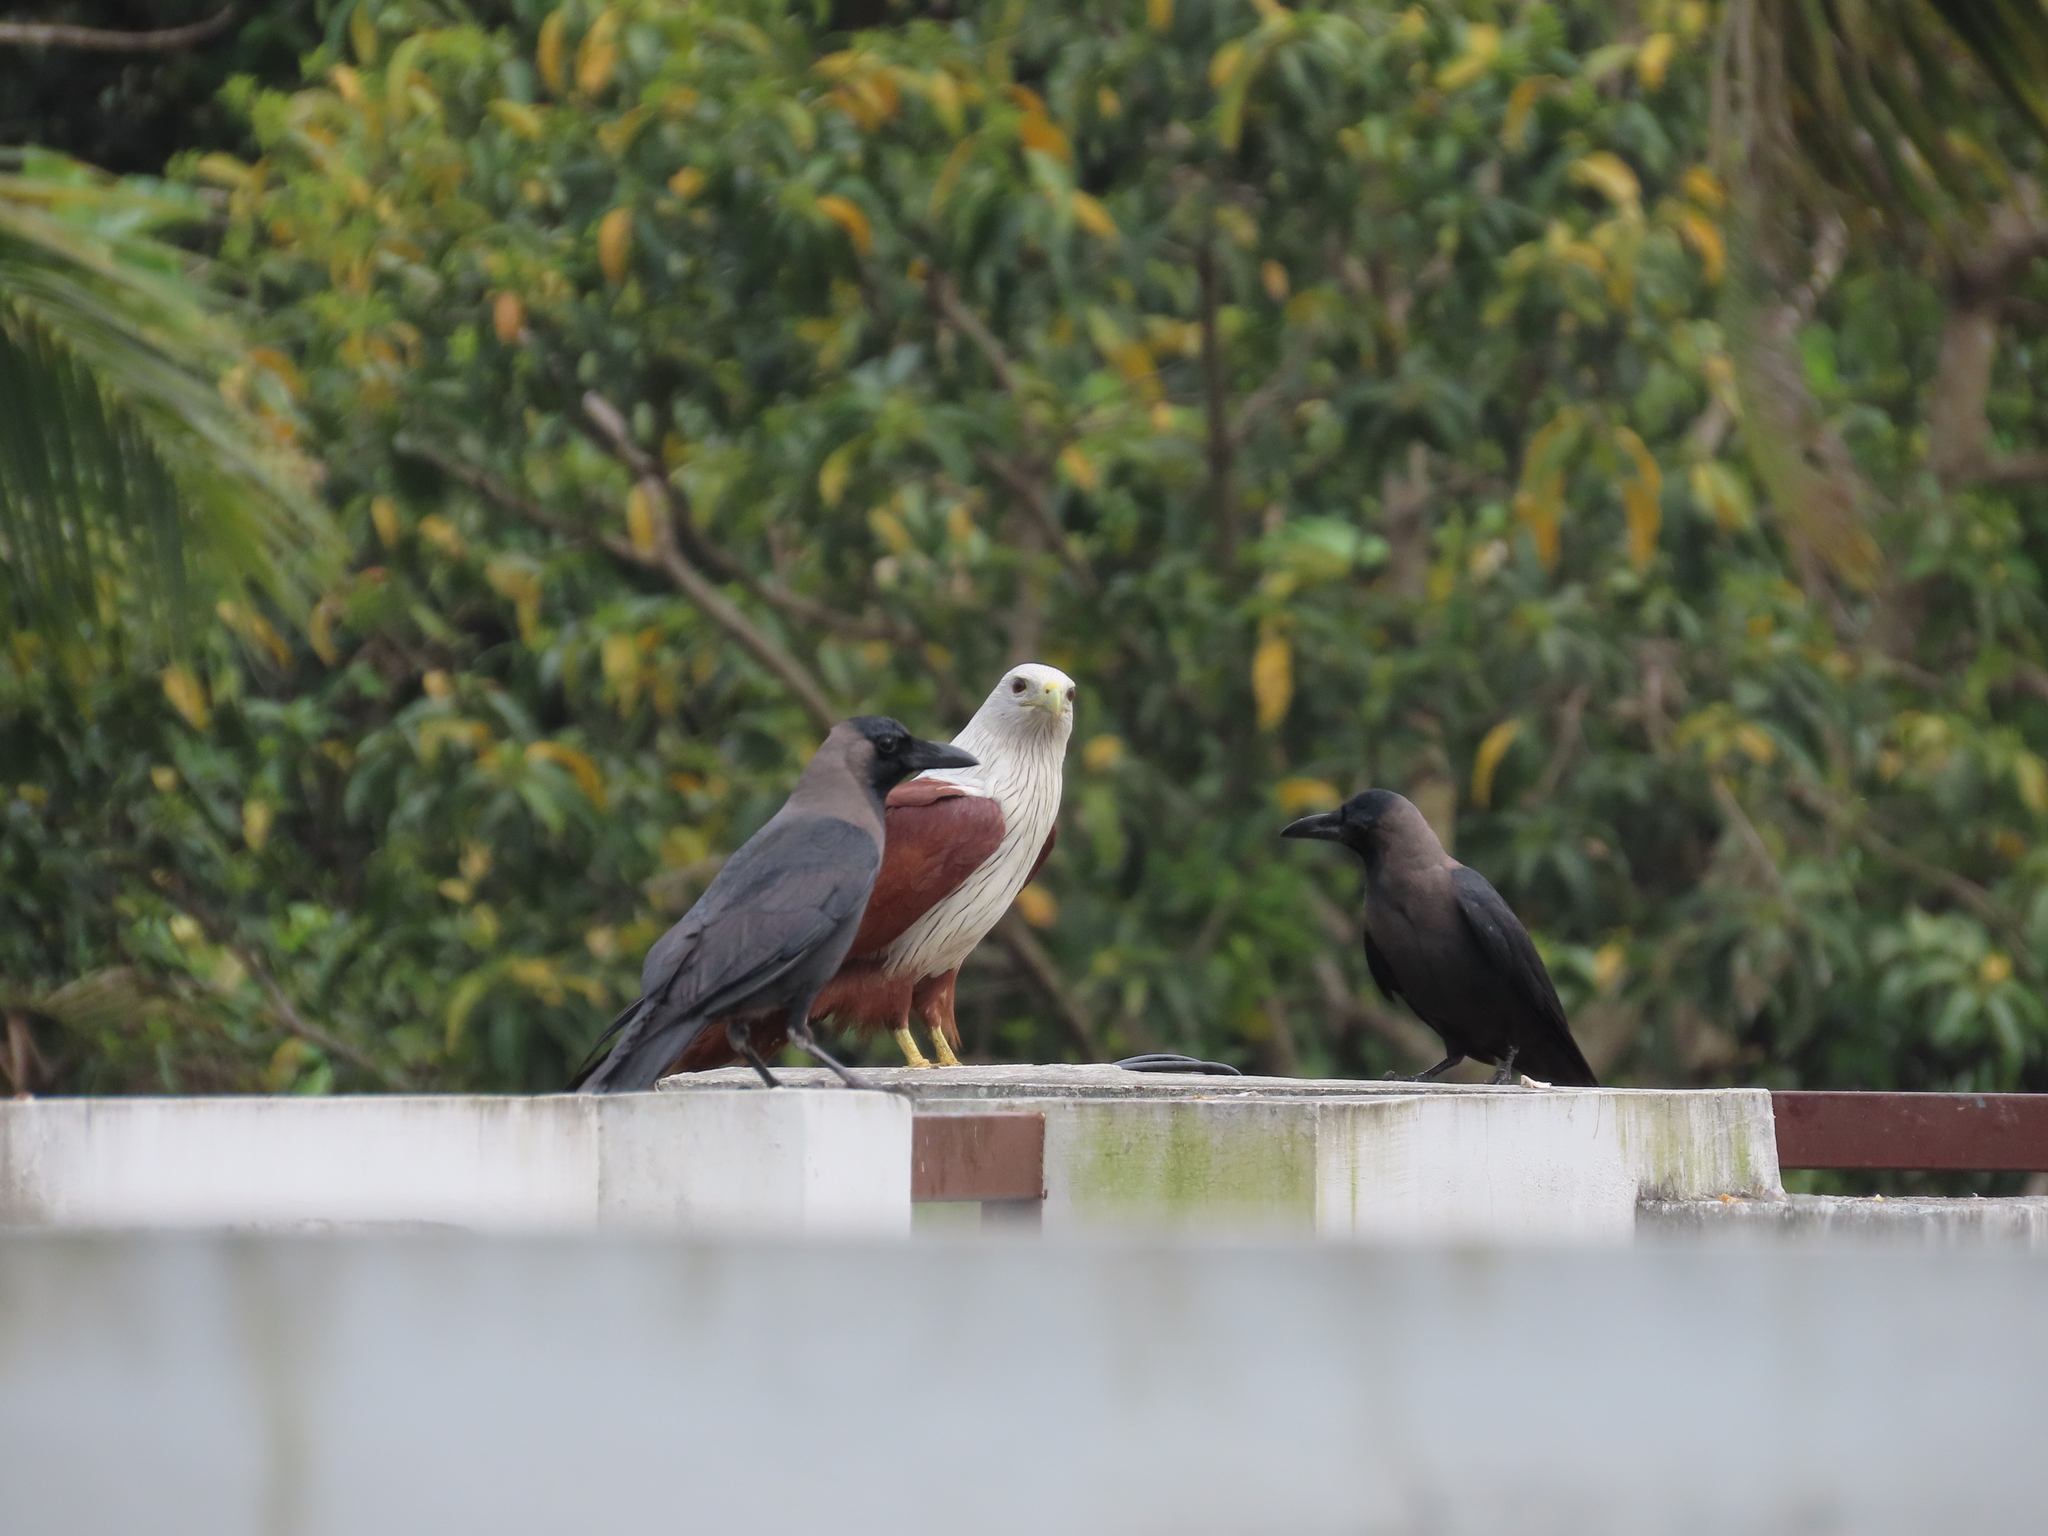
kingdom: Animalia
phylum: Chordata
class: Aves
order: Passeriformes
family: Corvidae
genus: Corvus
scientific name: Corvus splendens
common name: House crow
